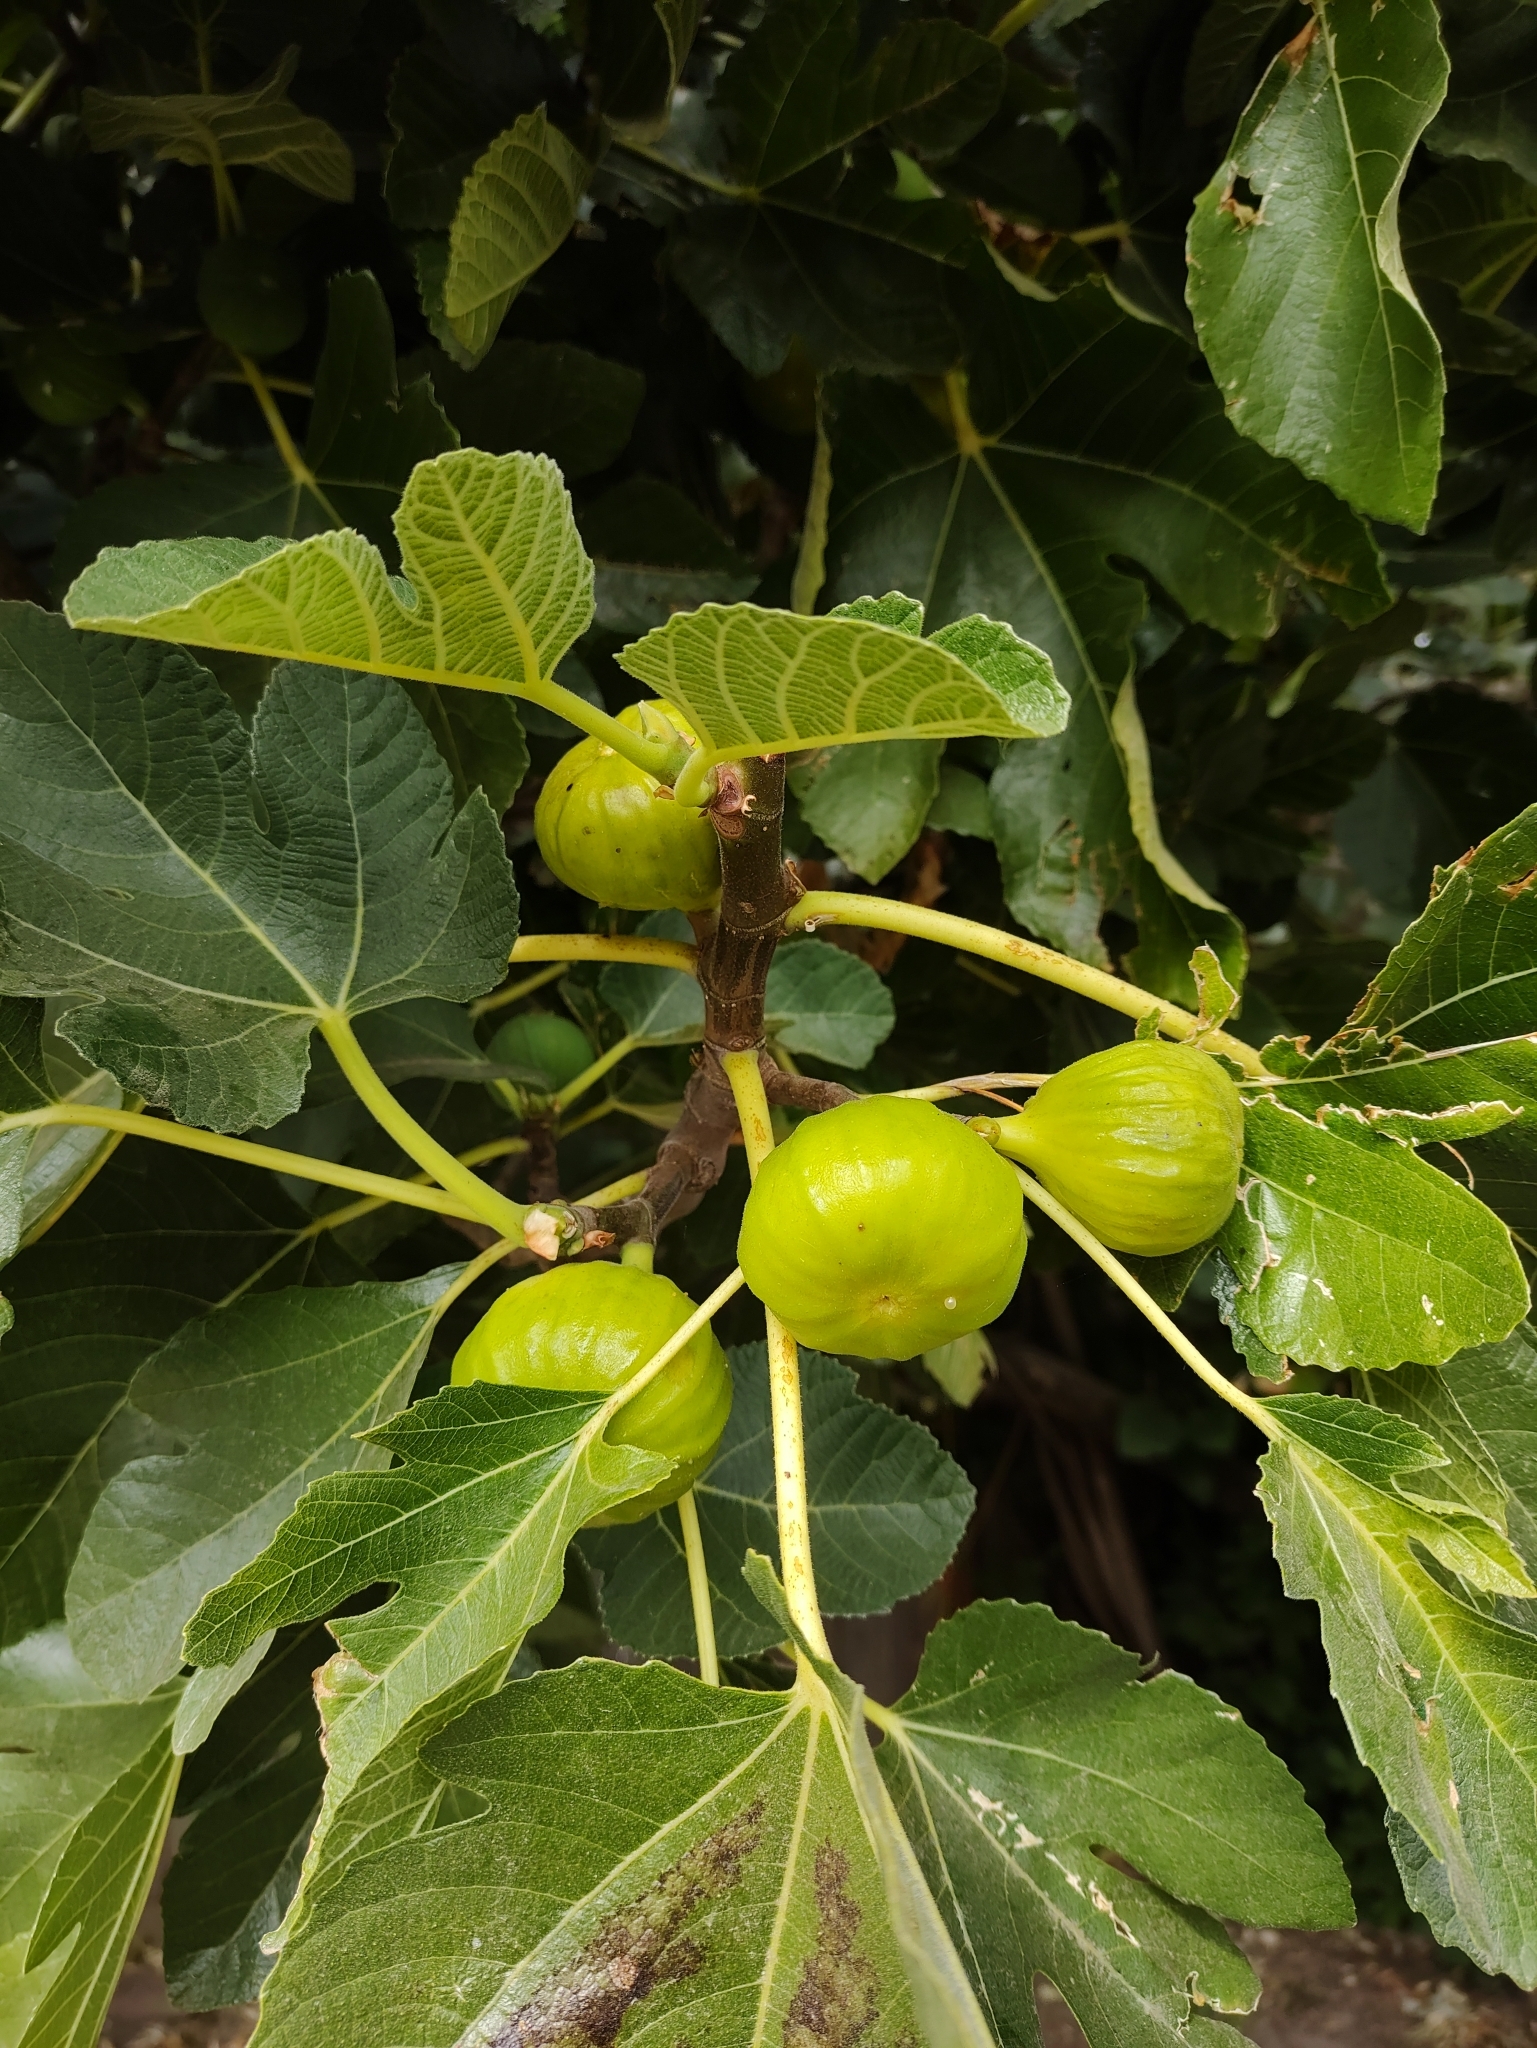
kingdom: Plantae
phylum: Tracheophyta
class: Magnoliopsida
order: Rosales
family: Moraceae
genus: Ficus
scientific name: Ficus carica
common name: Fig
